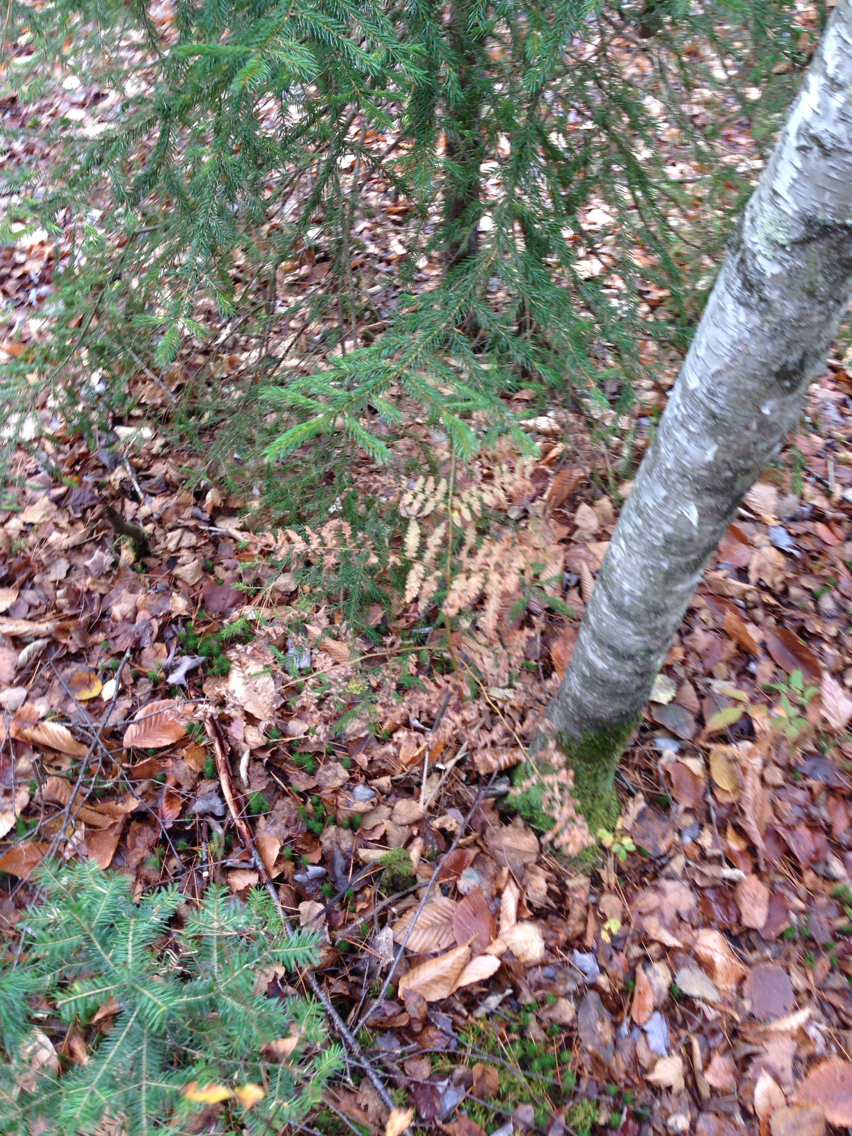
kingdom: Plantae
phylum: Tracheophyta
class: Polypodiopsida
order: Polypodiales
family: Dennstaedtiaceae
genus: Pteridium
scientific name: Pteridium aquilinum
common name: Bracken
